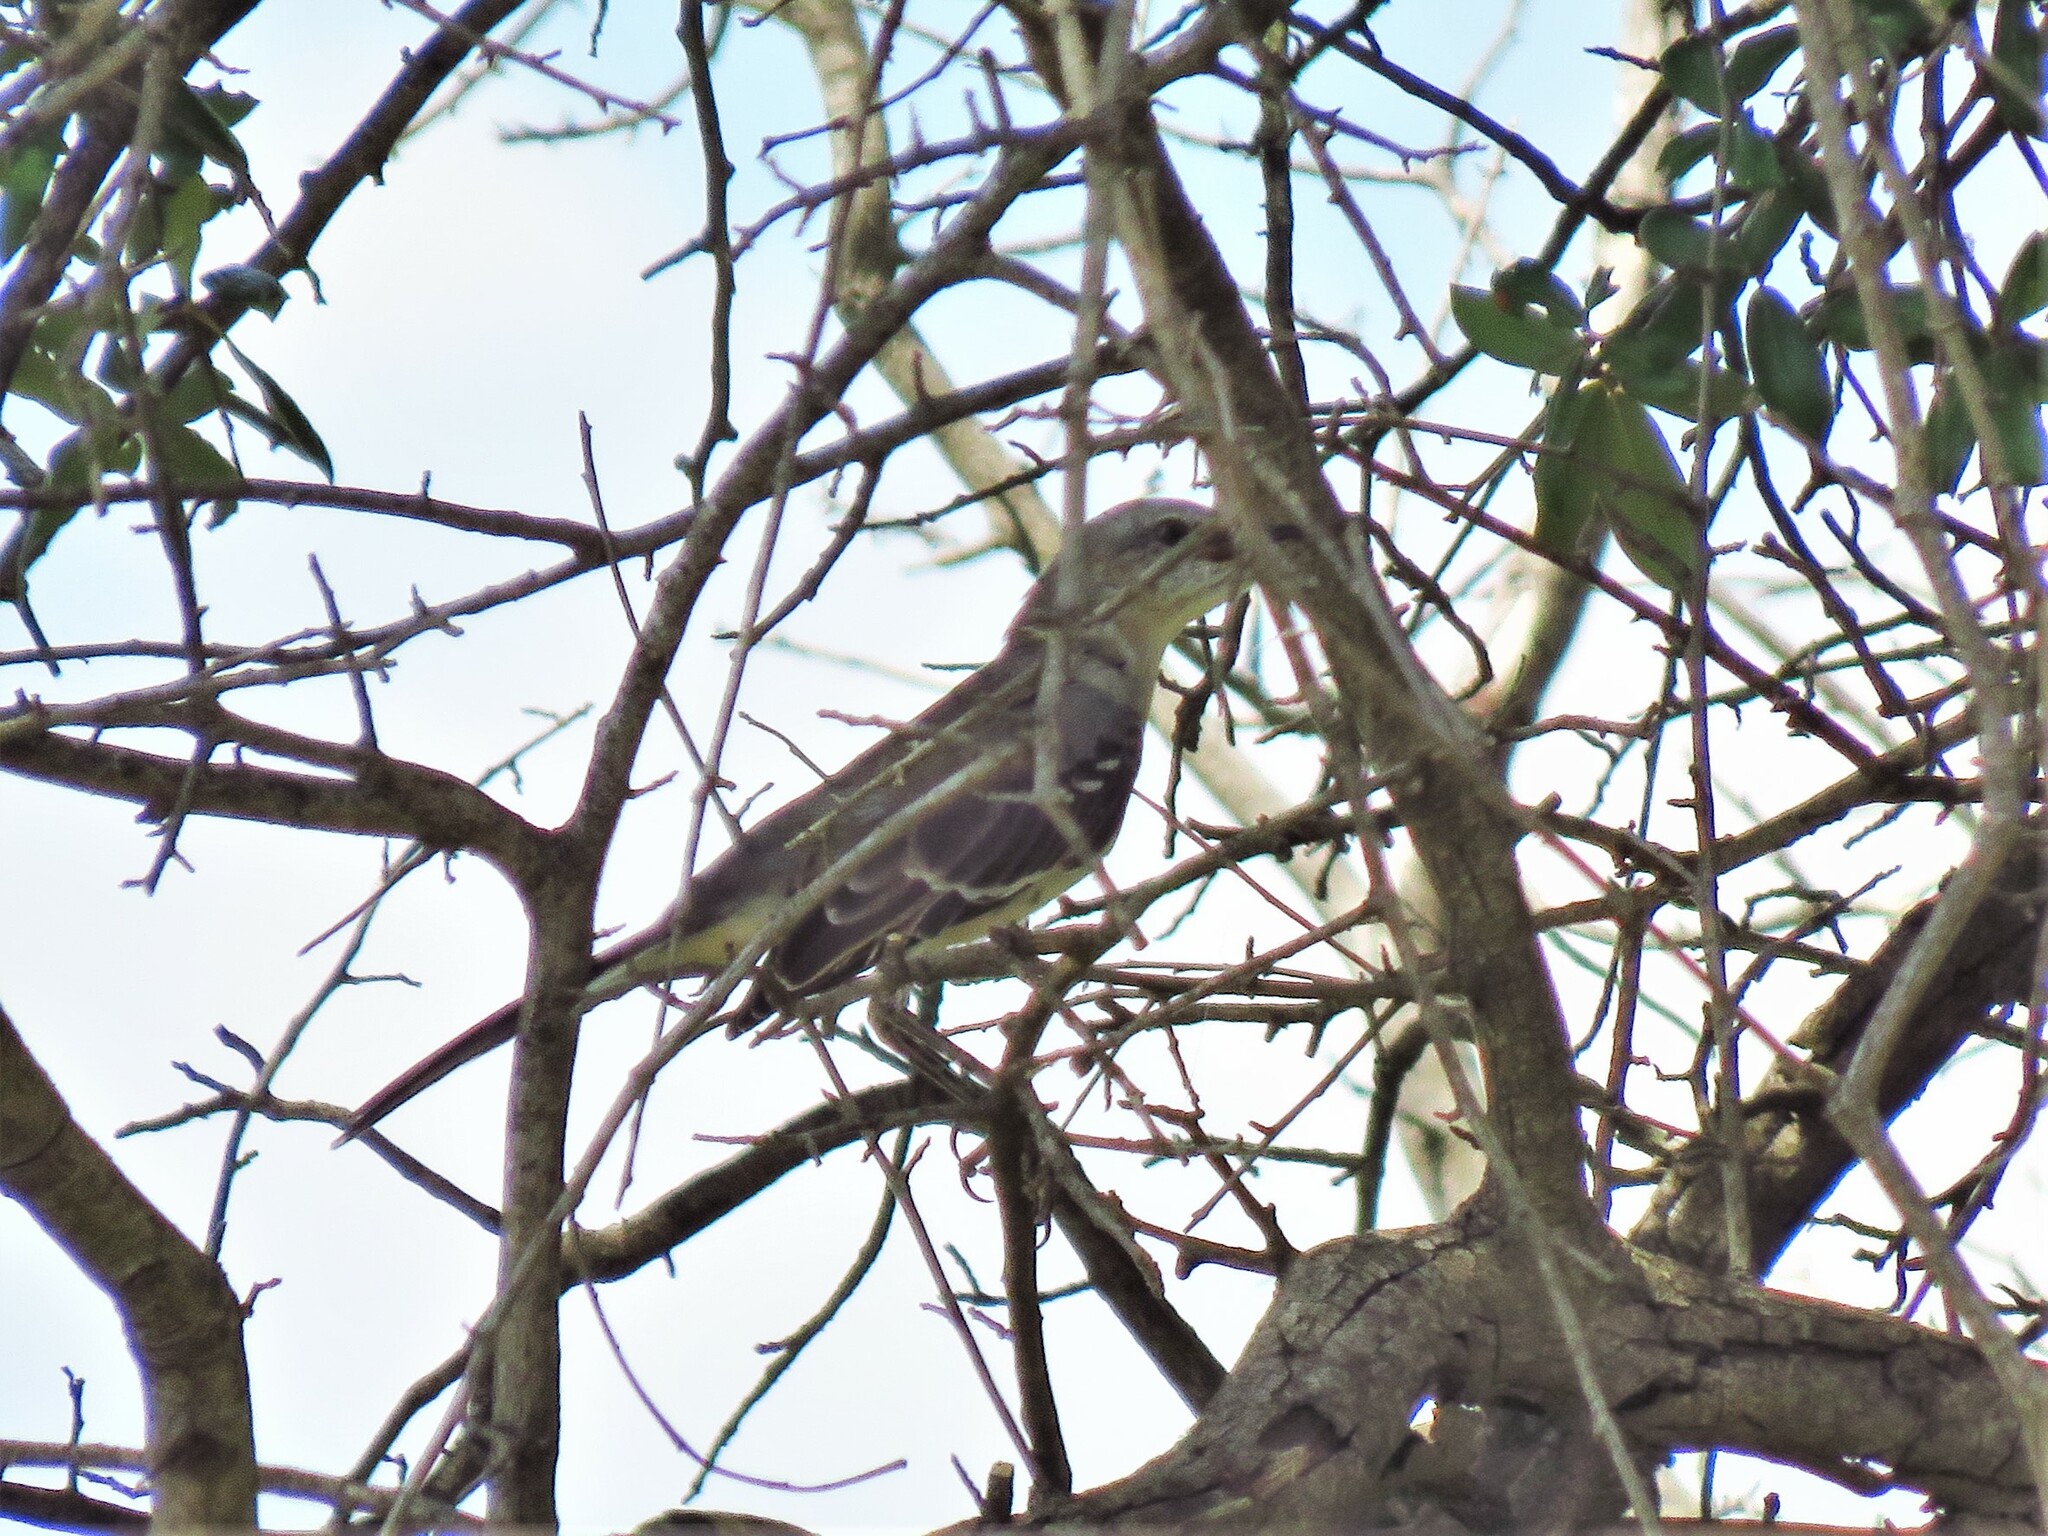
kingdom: Animalia
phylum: Chordata
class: Aves
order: Passeriformes
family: Mimidae
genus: Mimus
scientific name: Mimus polyglottos
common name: Northern mockingbird
